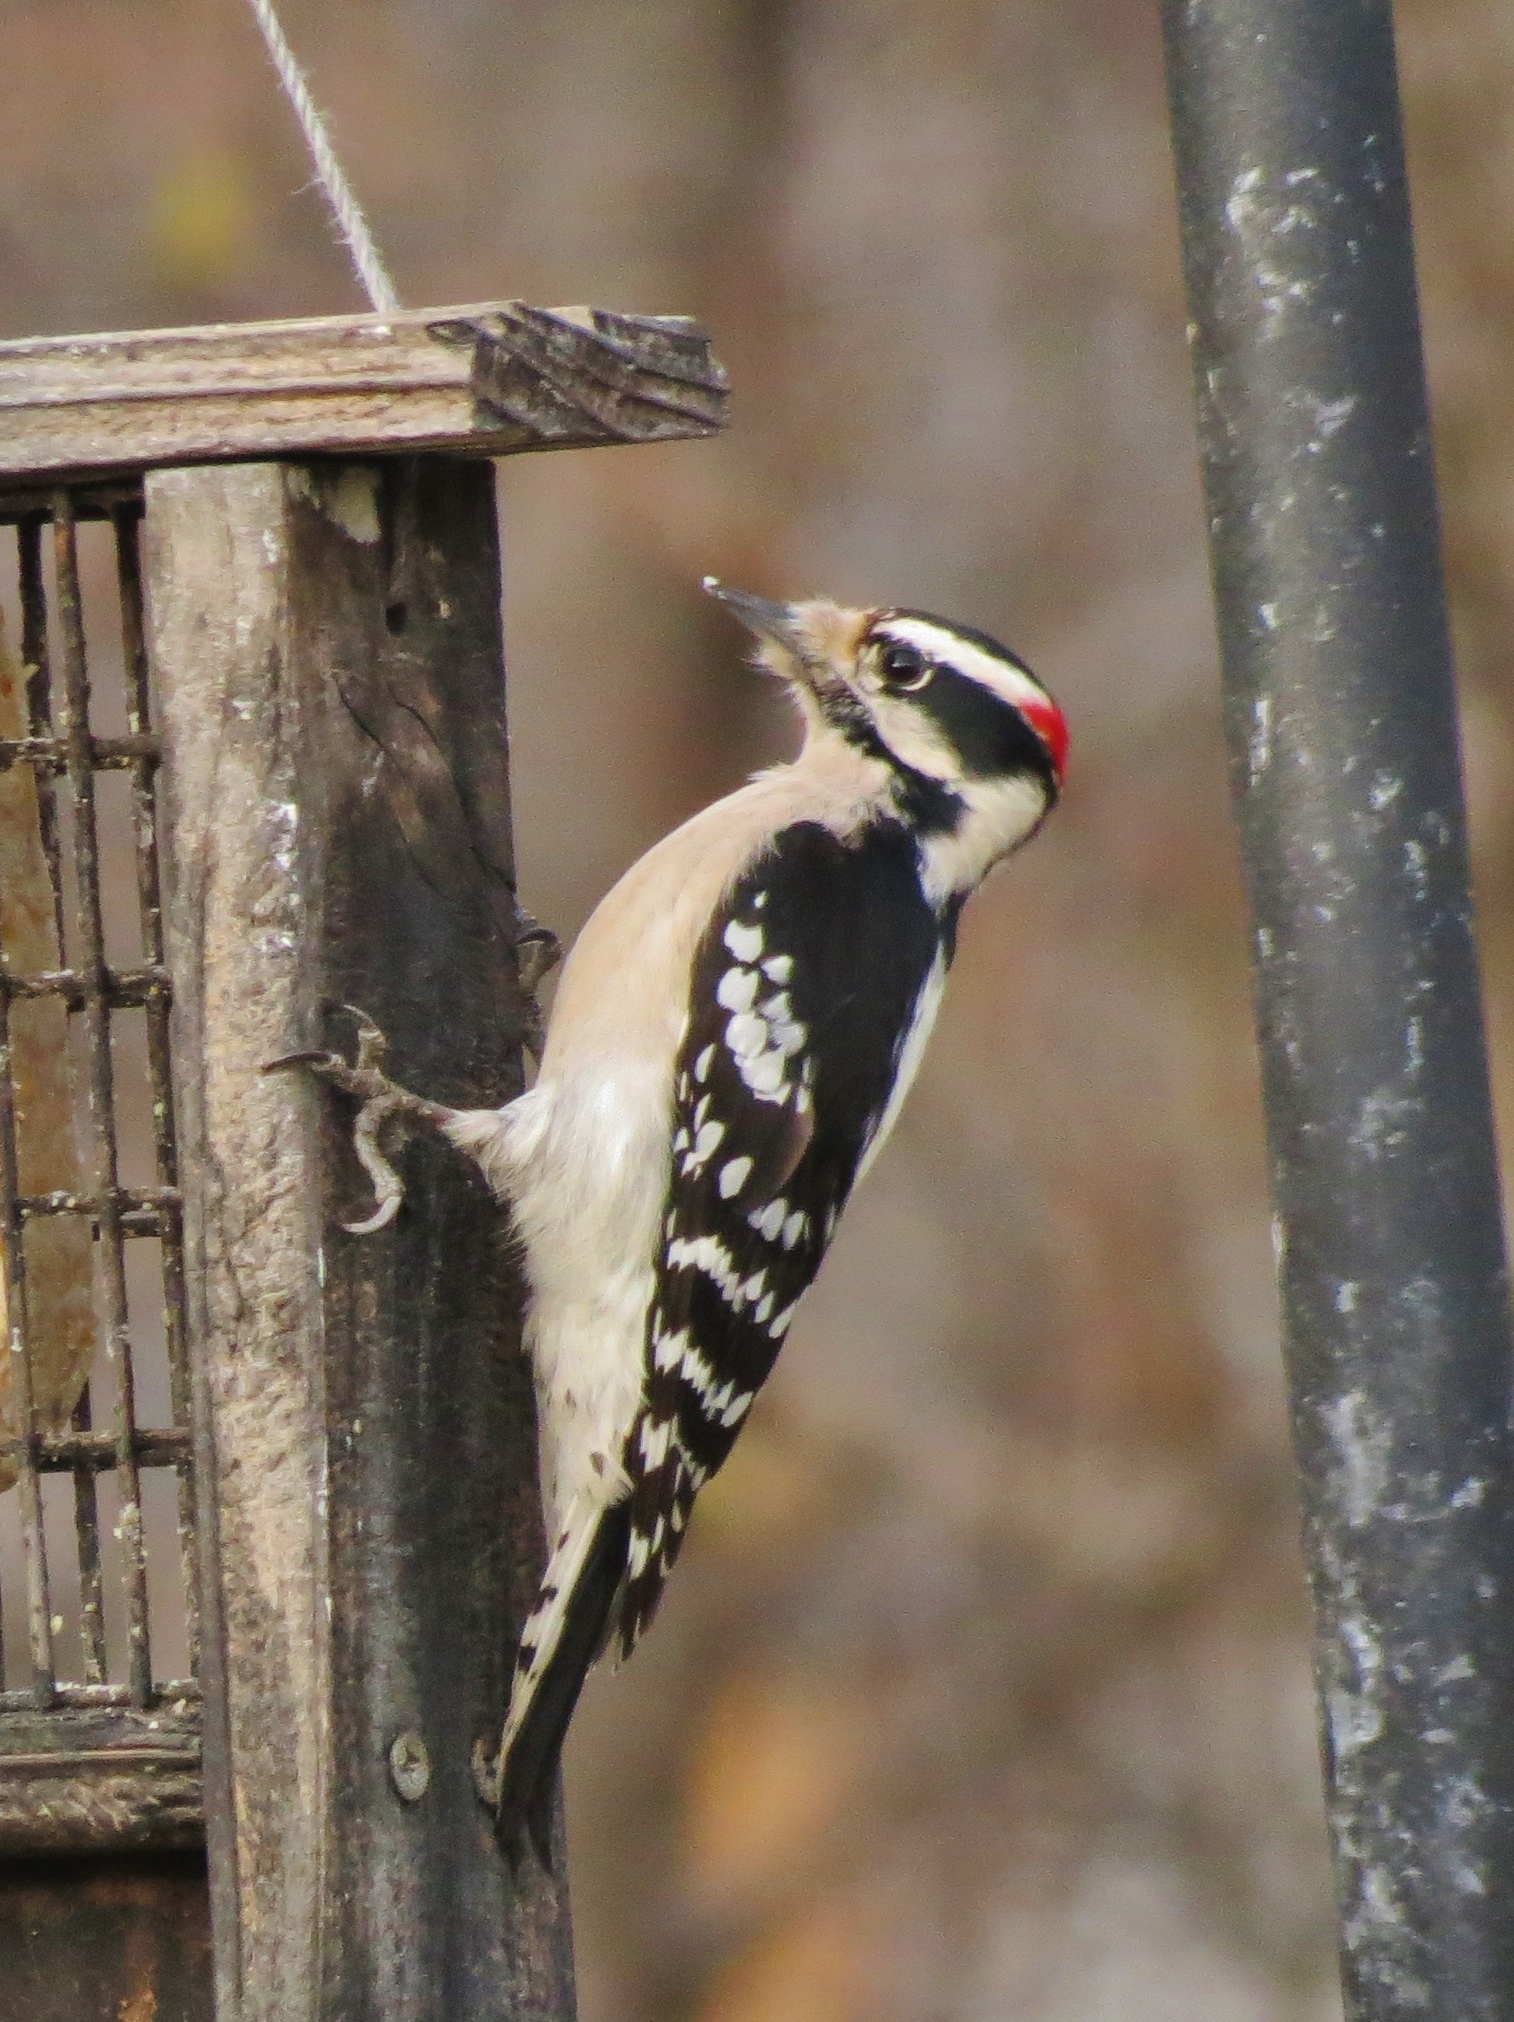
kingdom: Animalia
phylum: Chordata
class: Aves
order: Piciformes
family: Picidae
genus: Dryobates
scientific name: Dryobates pubescens
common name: Downy woodpecker
